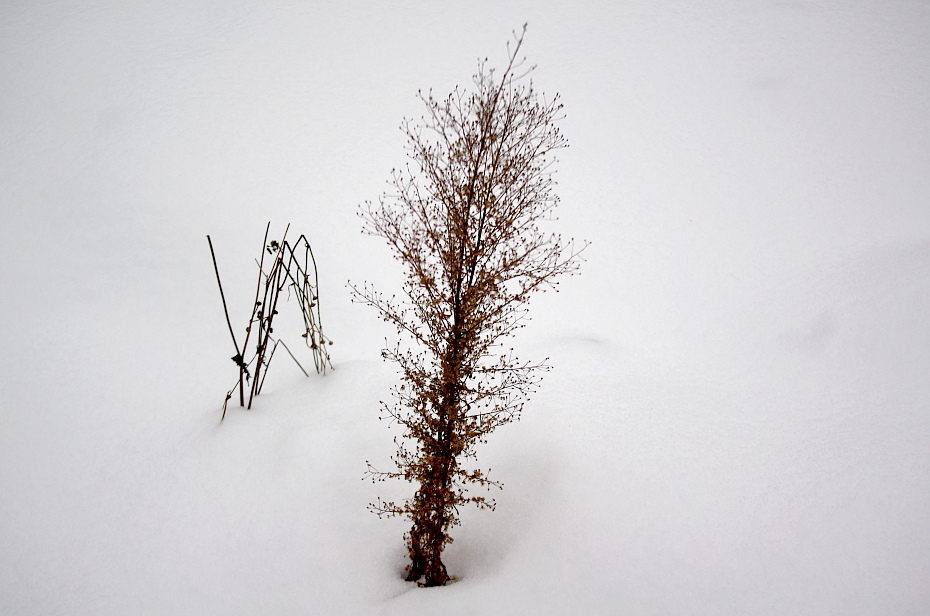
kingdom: Plantae
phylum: Tracheophyta
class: Magnoliopsida
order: Asterales
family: Asteraceae
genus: Erigeron
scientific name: Erigeron canadensis
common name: Canadian fleabane
